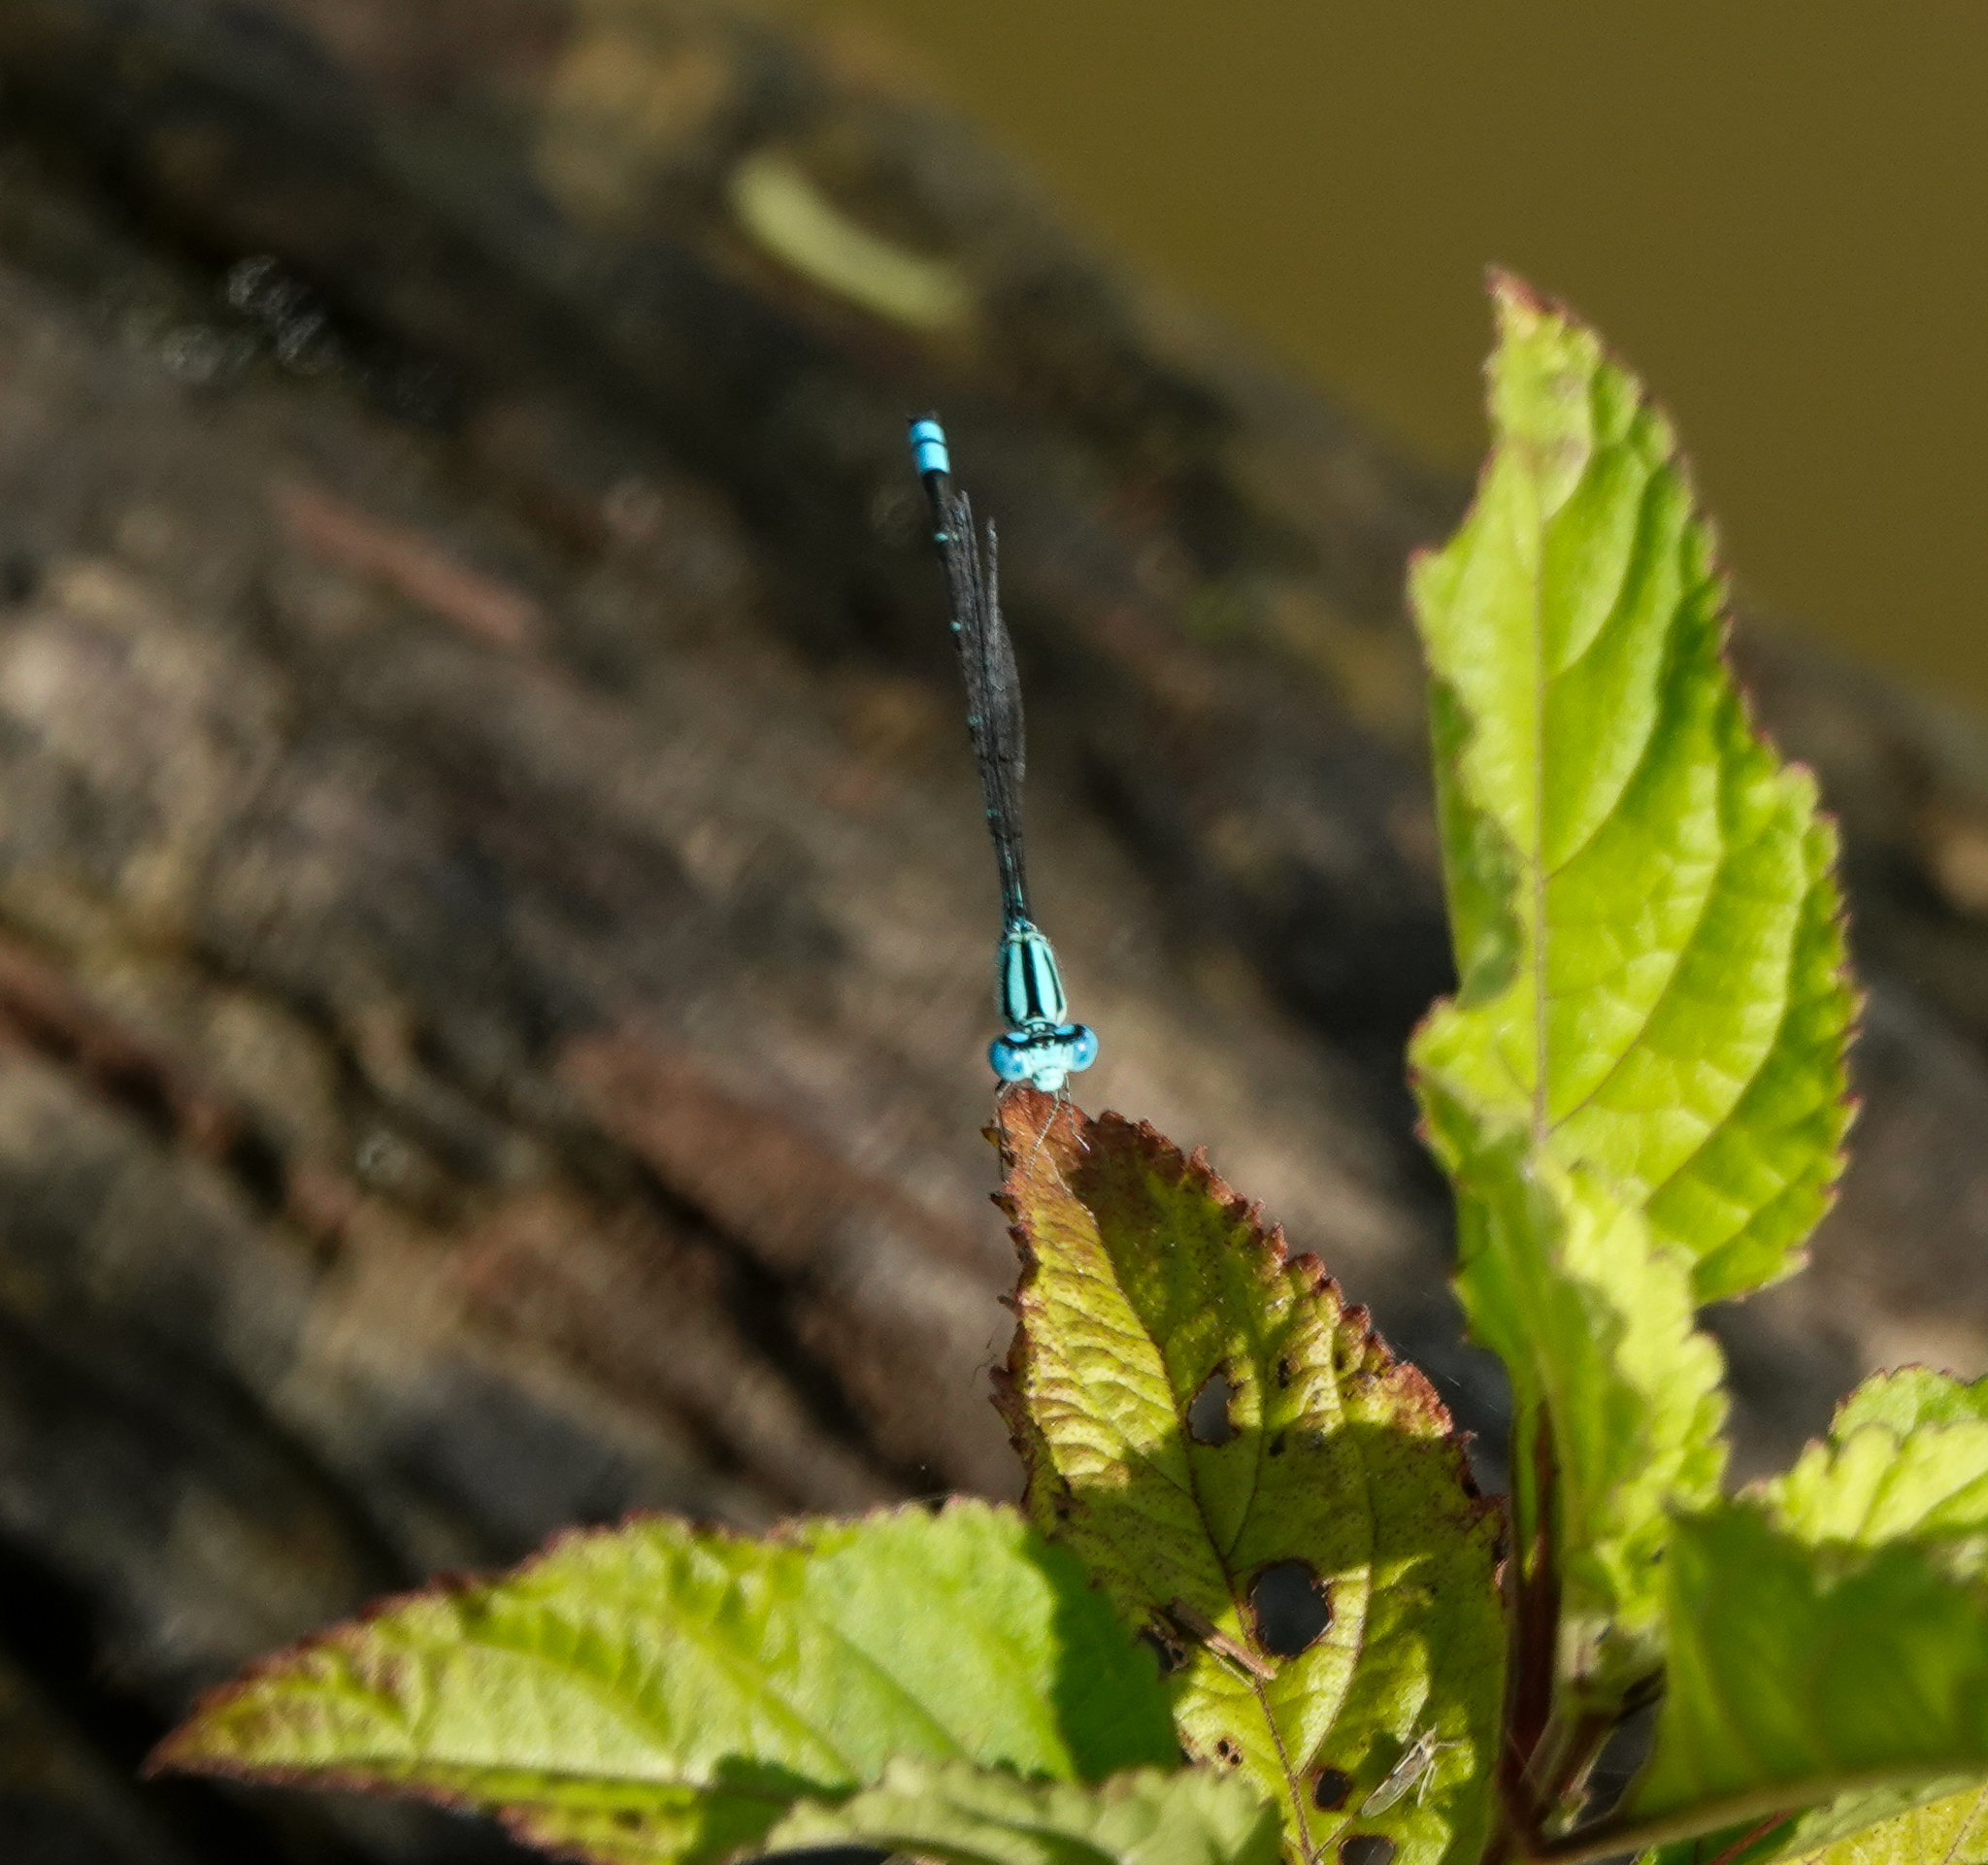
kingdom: Animalia
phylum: Arthropoda
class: Insecta
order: Odonata
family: Coenagrionidae
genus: Pseudagrion
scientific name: Pseudagrion microcephalum
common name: Blue riverdamsel
